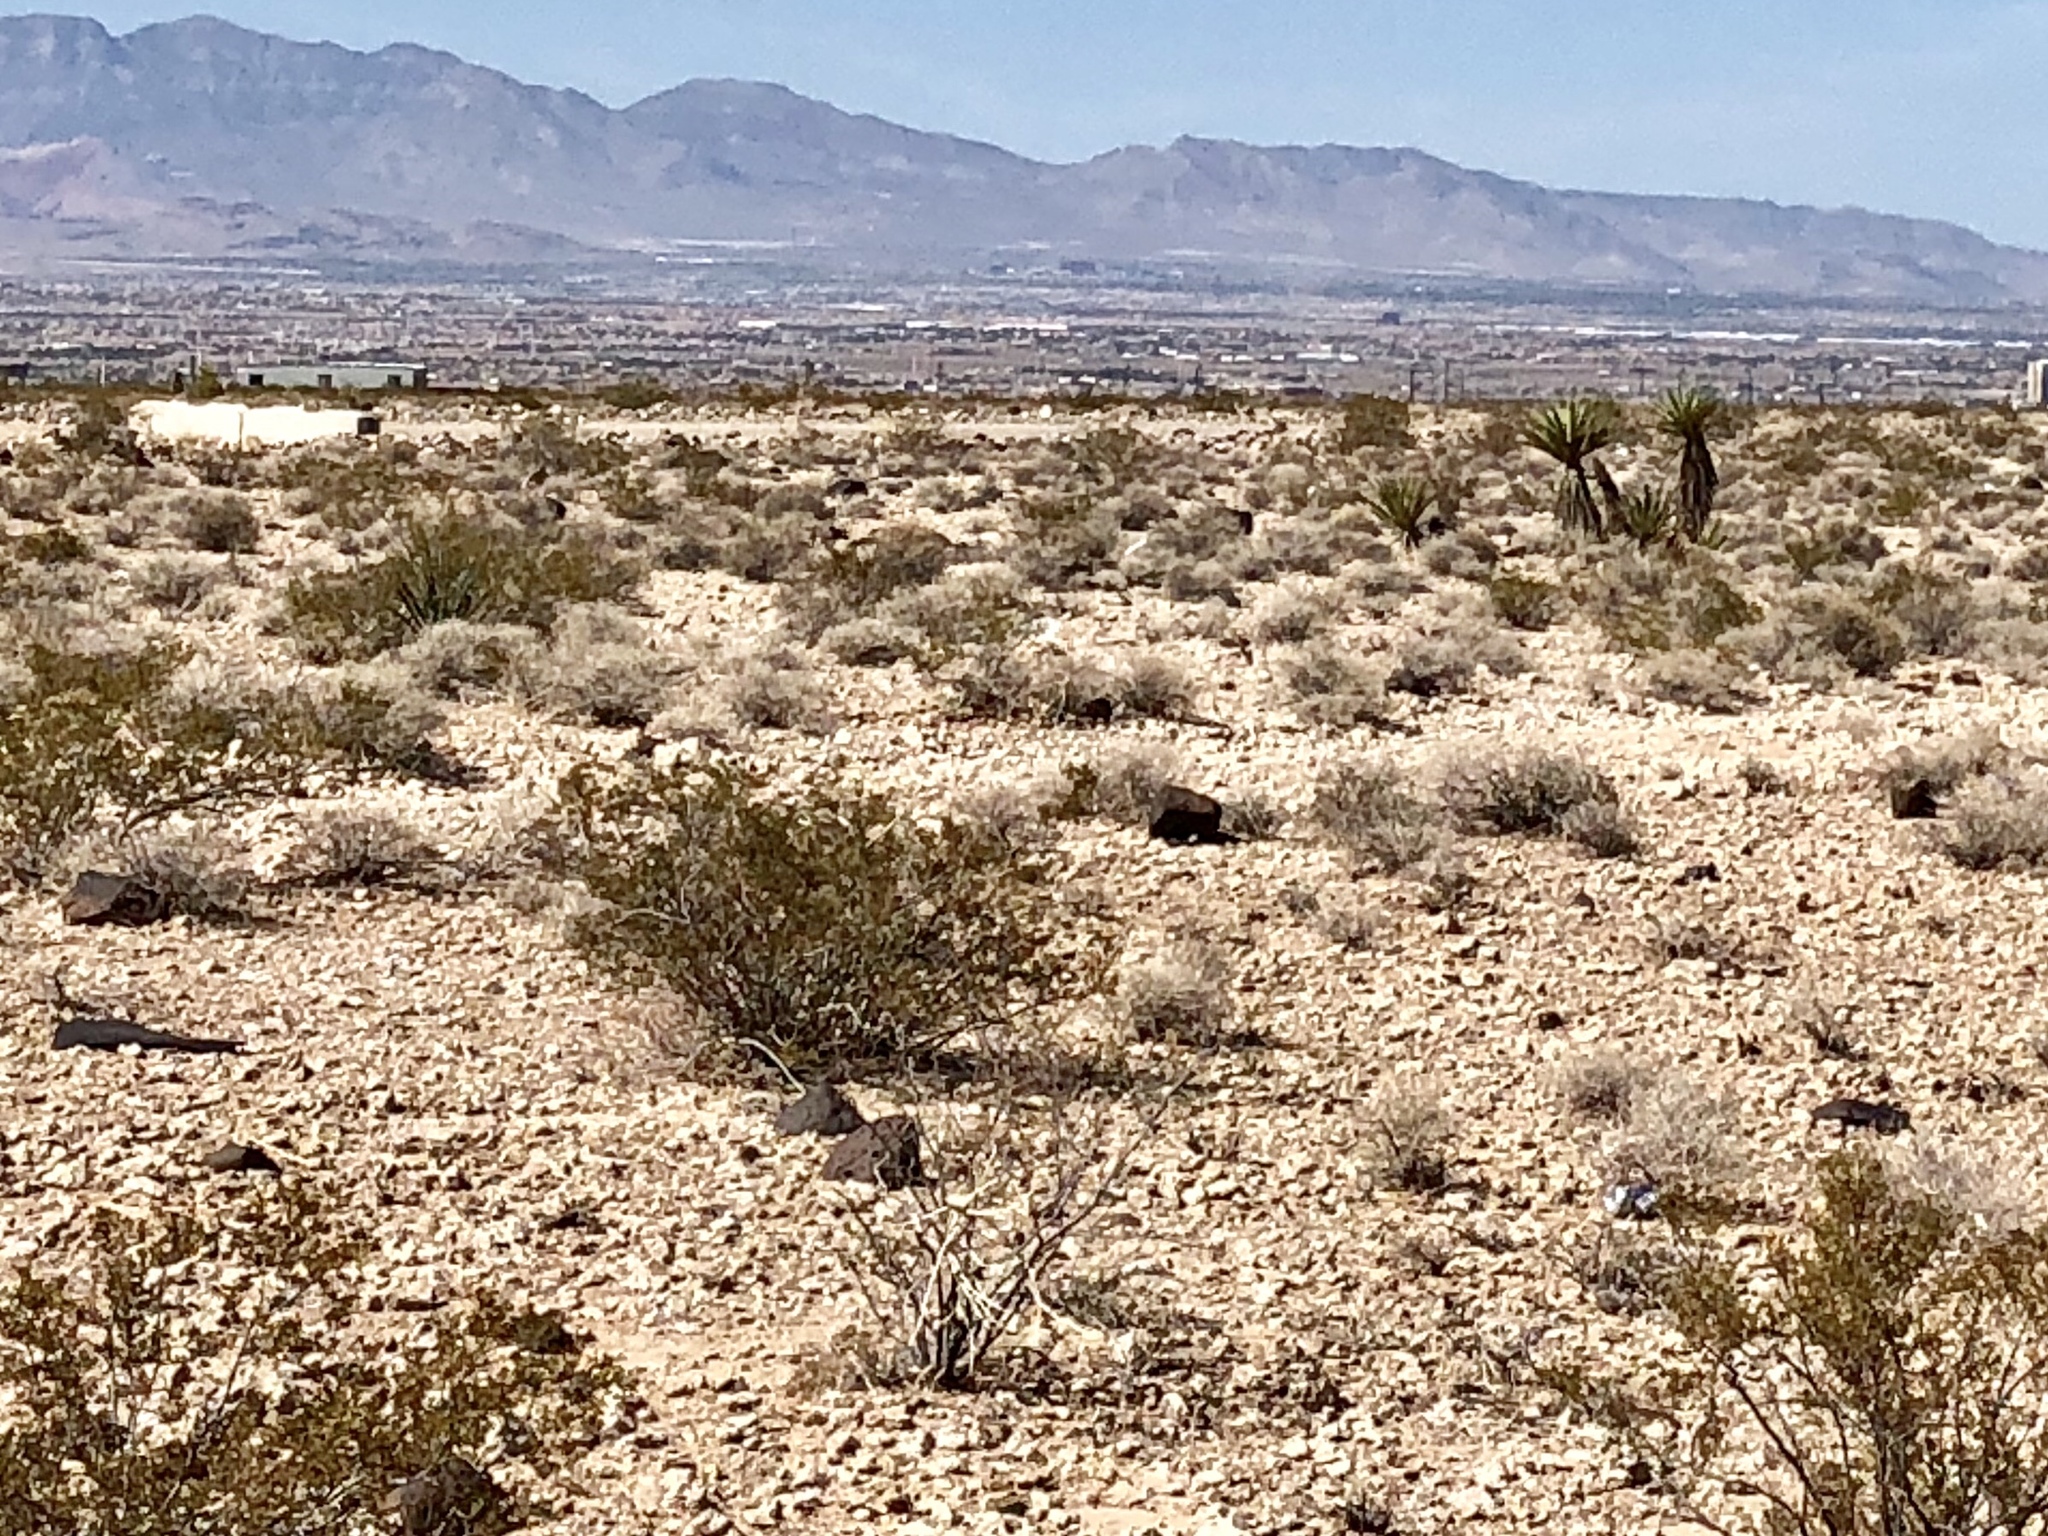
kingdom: Plantae
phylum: Tracheophyta
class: Magnoliopsida
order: Zygophyllales
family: Zygophyllaceae
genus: Larrea
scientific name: Larrea tridentata
